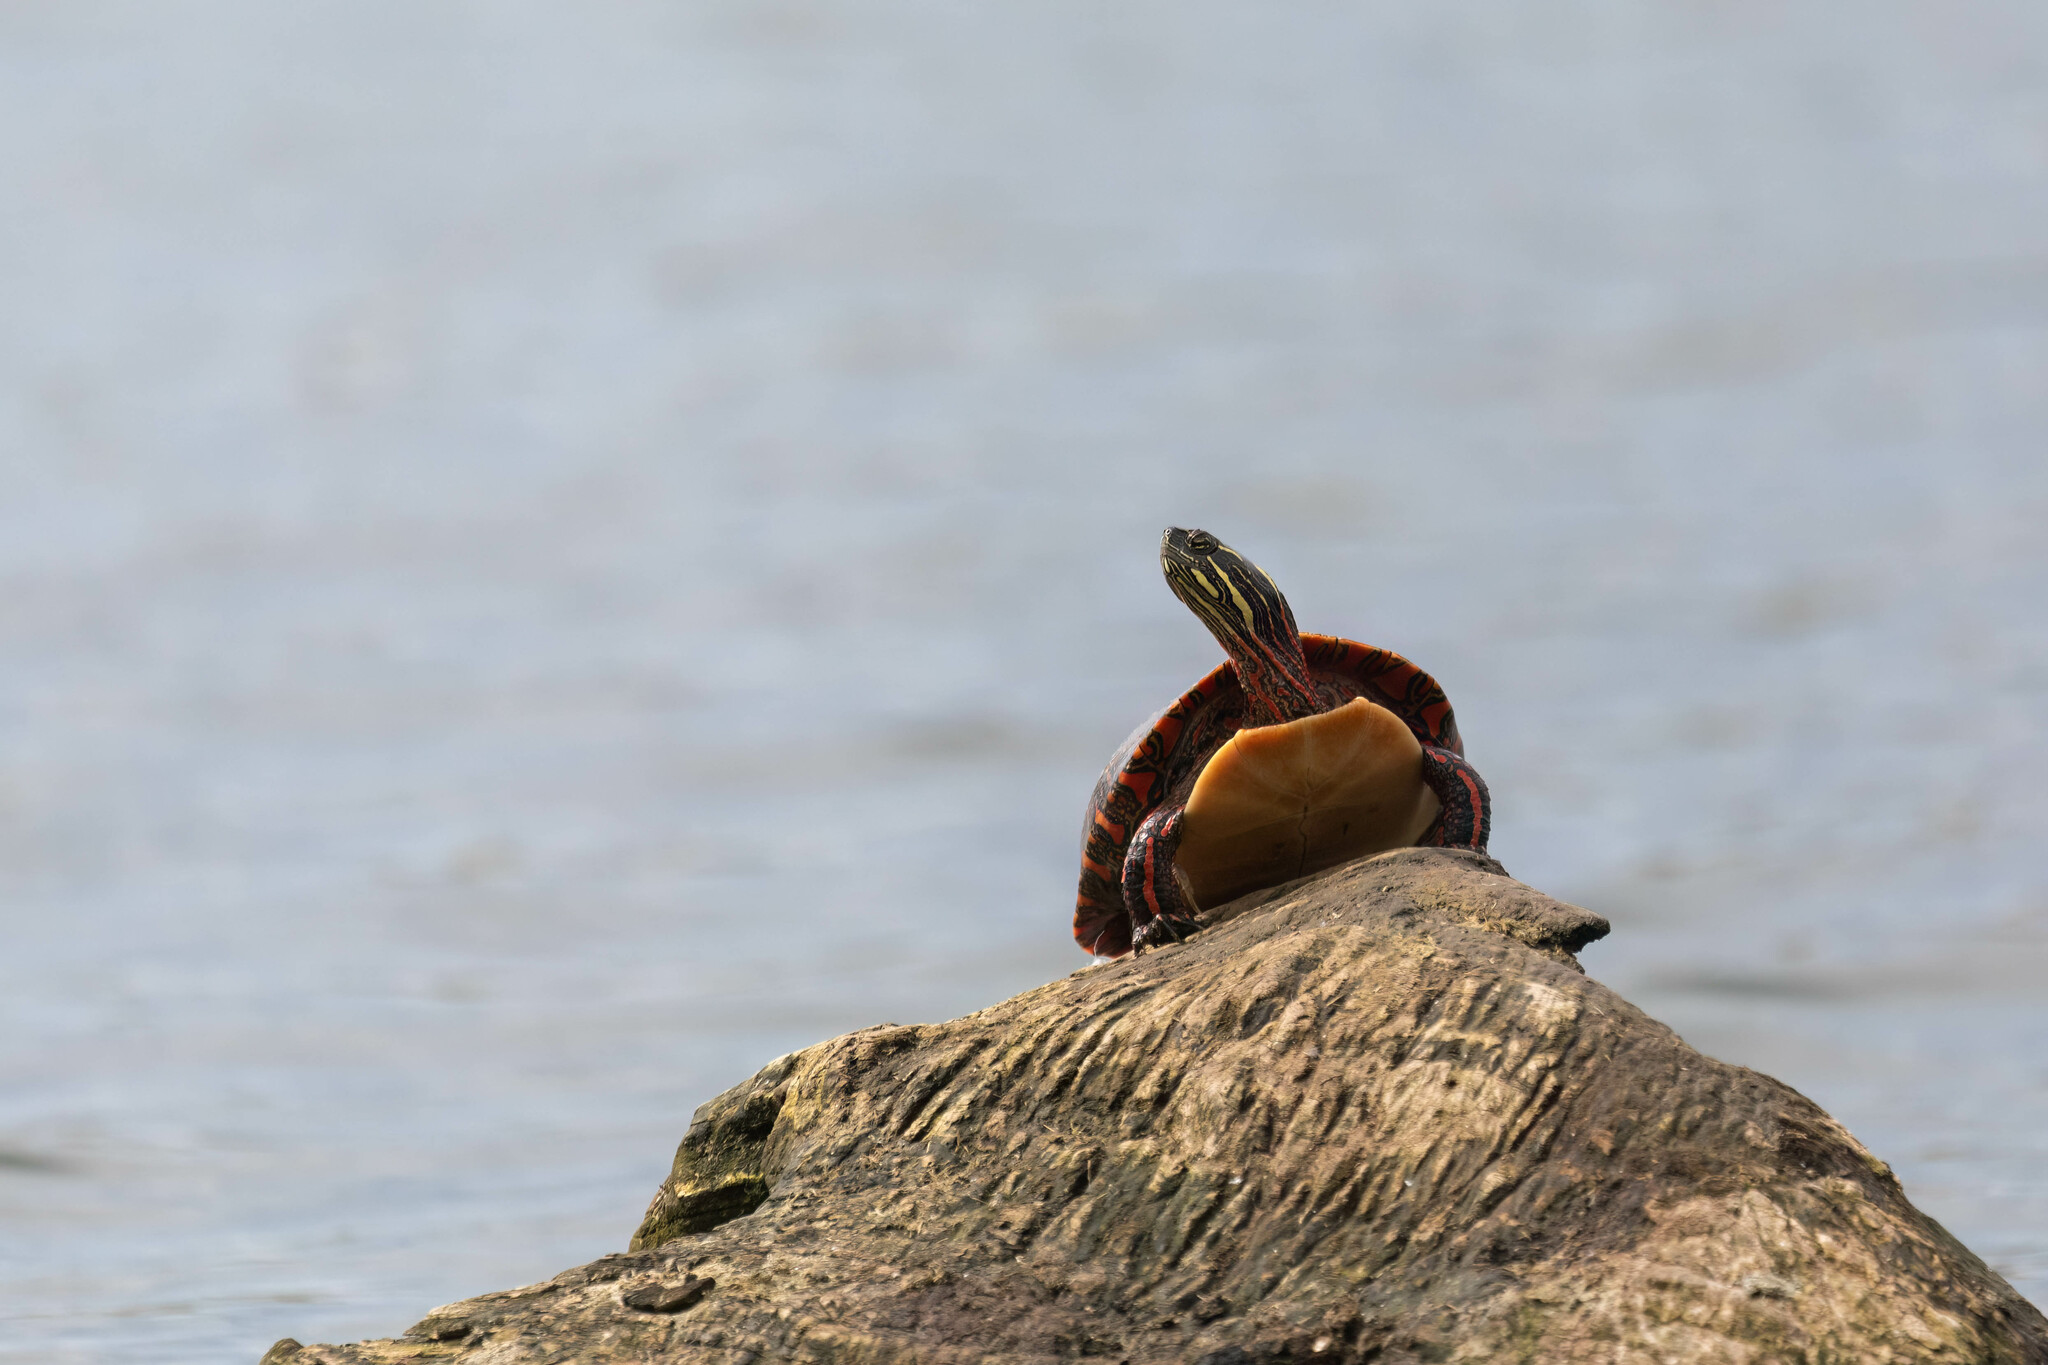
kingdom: Animalia
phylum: Chordata
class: Testudines
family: Emydidae
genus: Chrysemys
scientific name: Chrysemys picta
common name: Painted turtle
